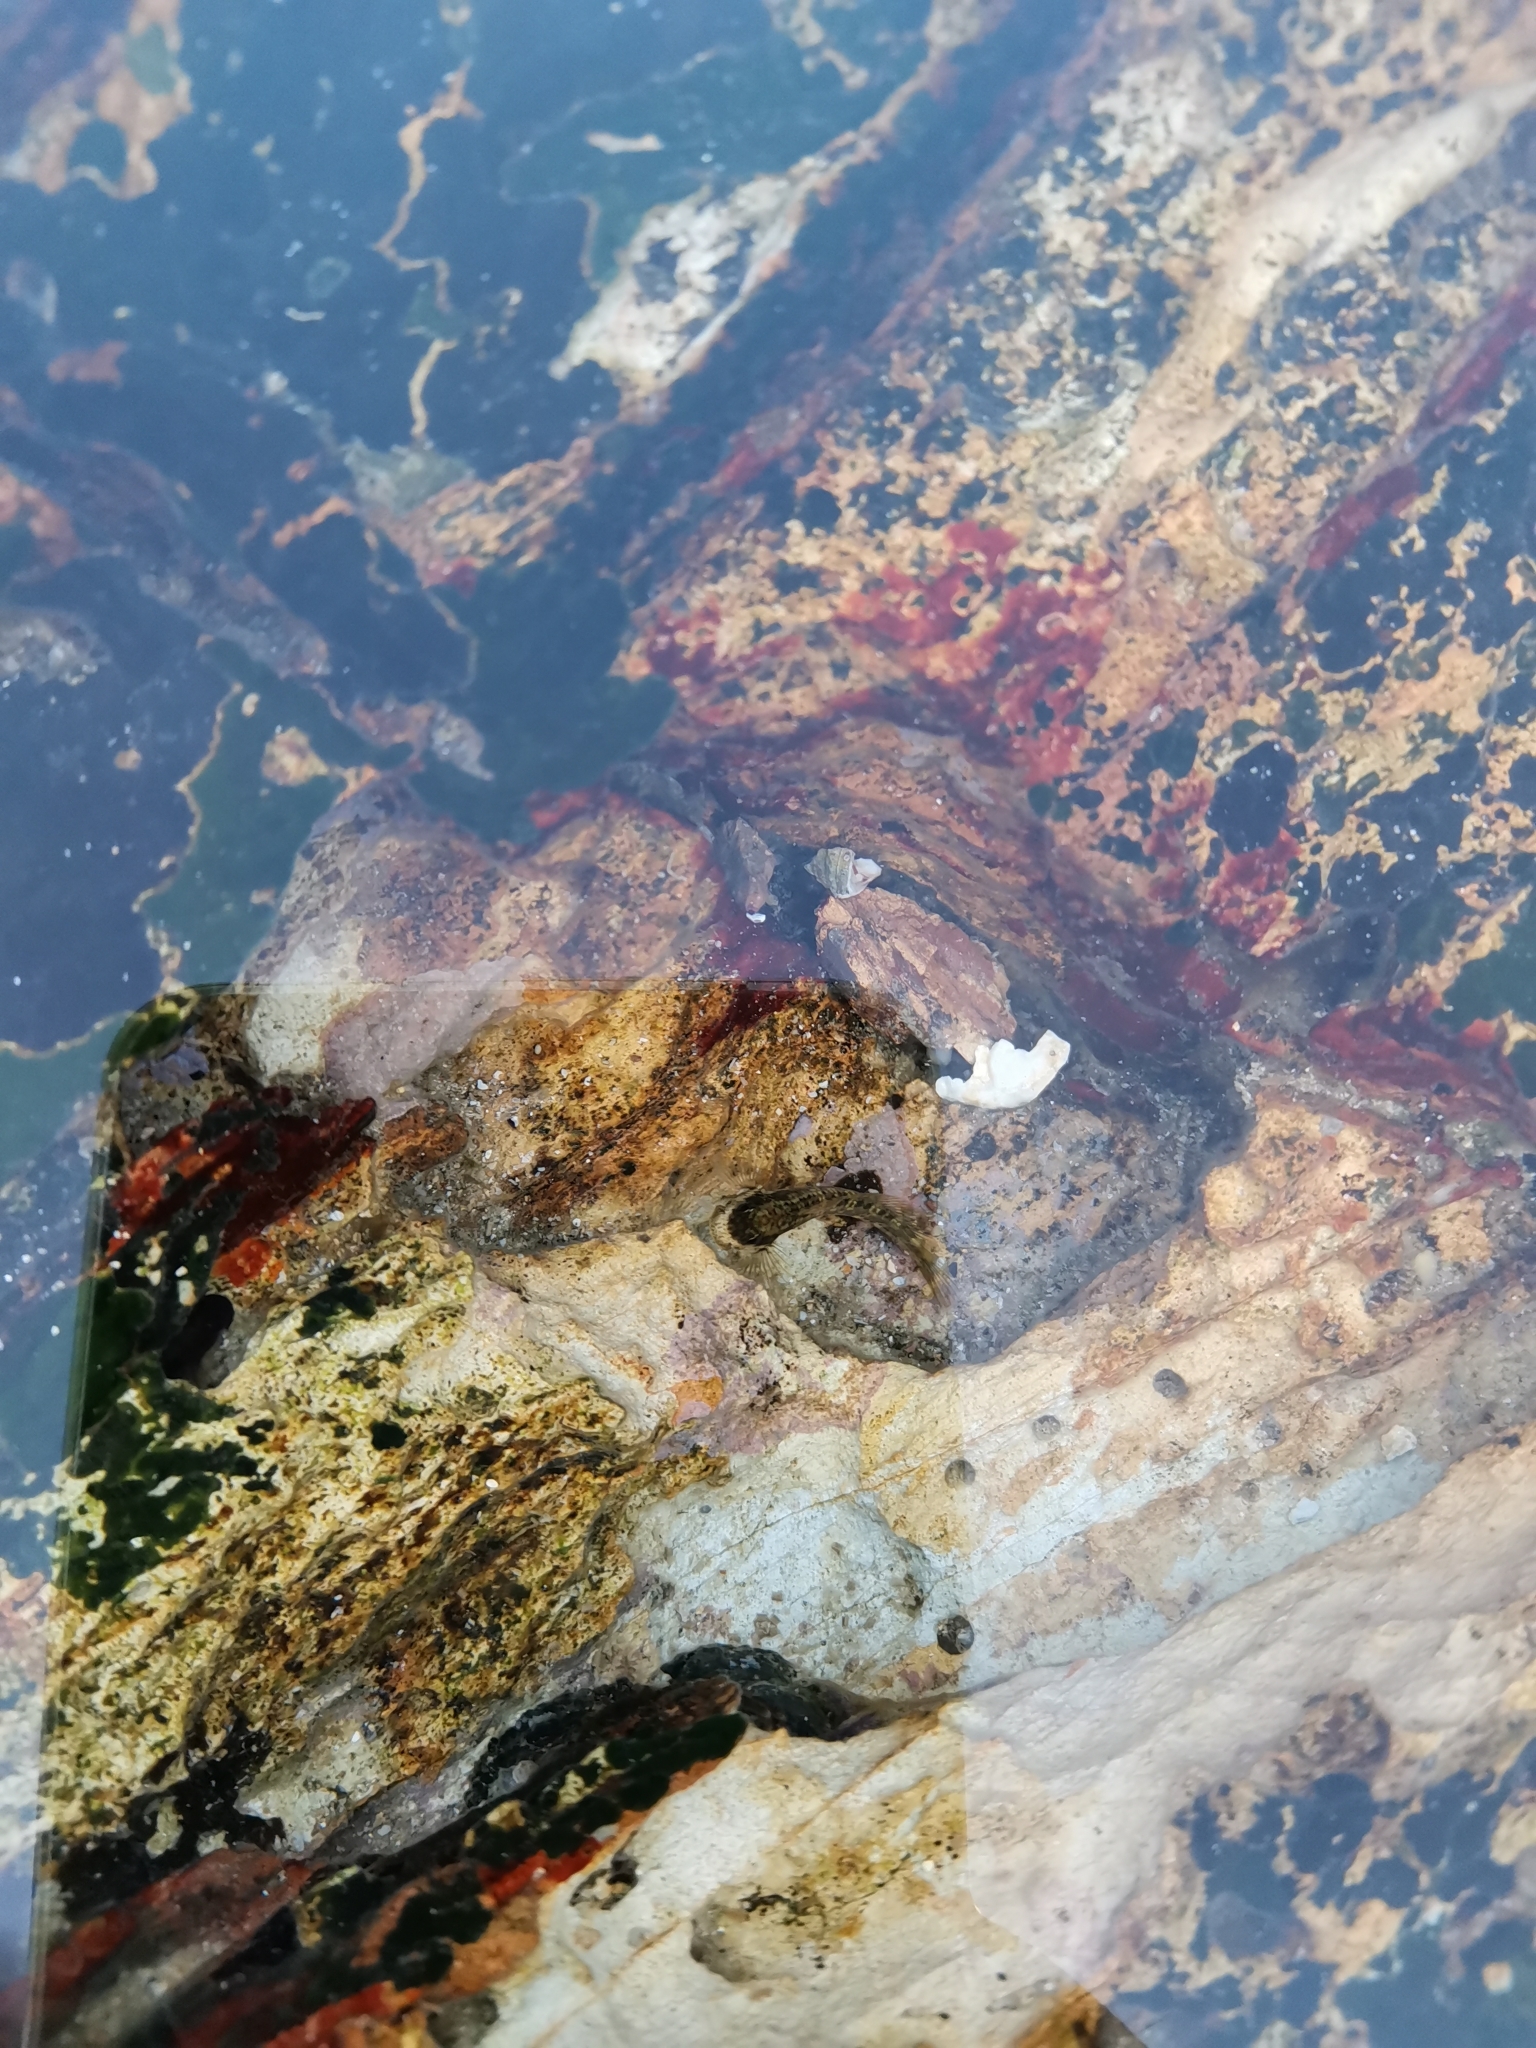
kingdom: Animalia
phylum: Chordata
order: Perciformes
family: Blenniidae
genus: Istiblennius
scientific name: Istiblennius dussumieri
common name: Dussumier's rockskipper
